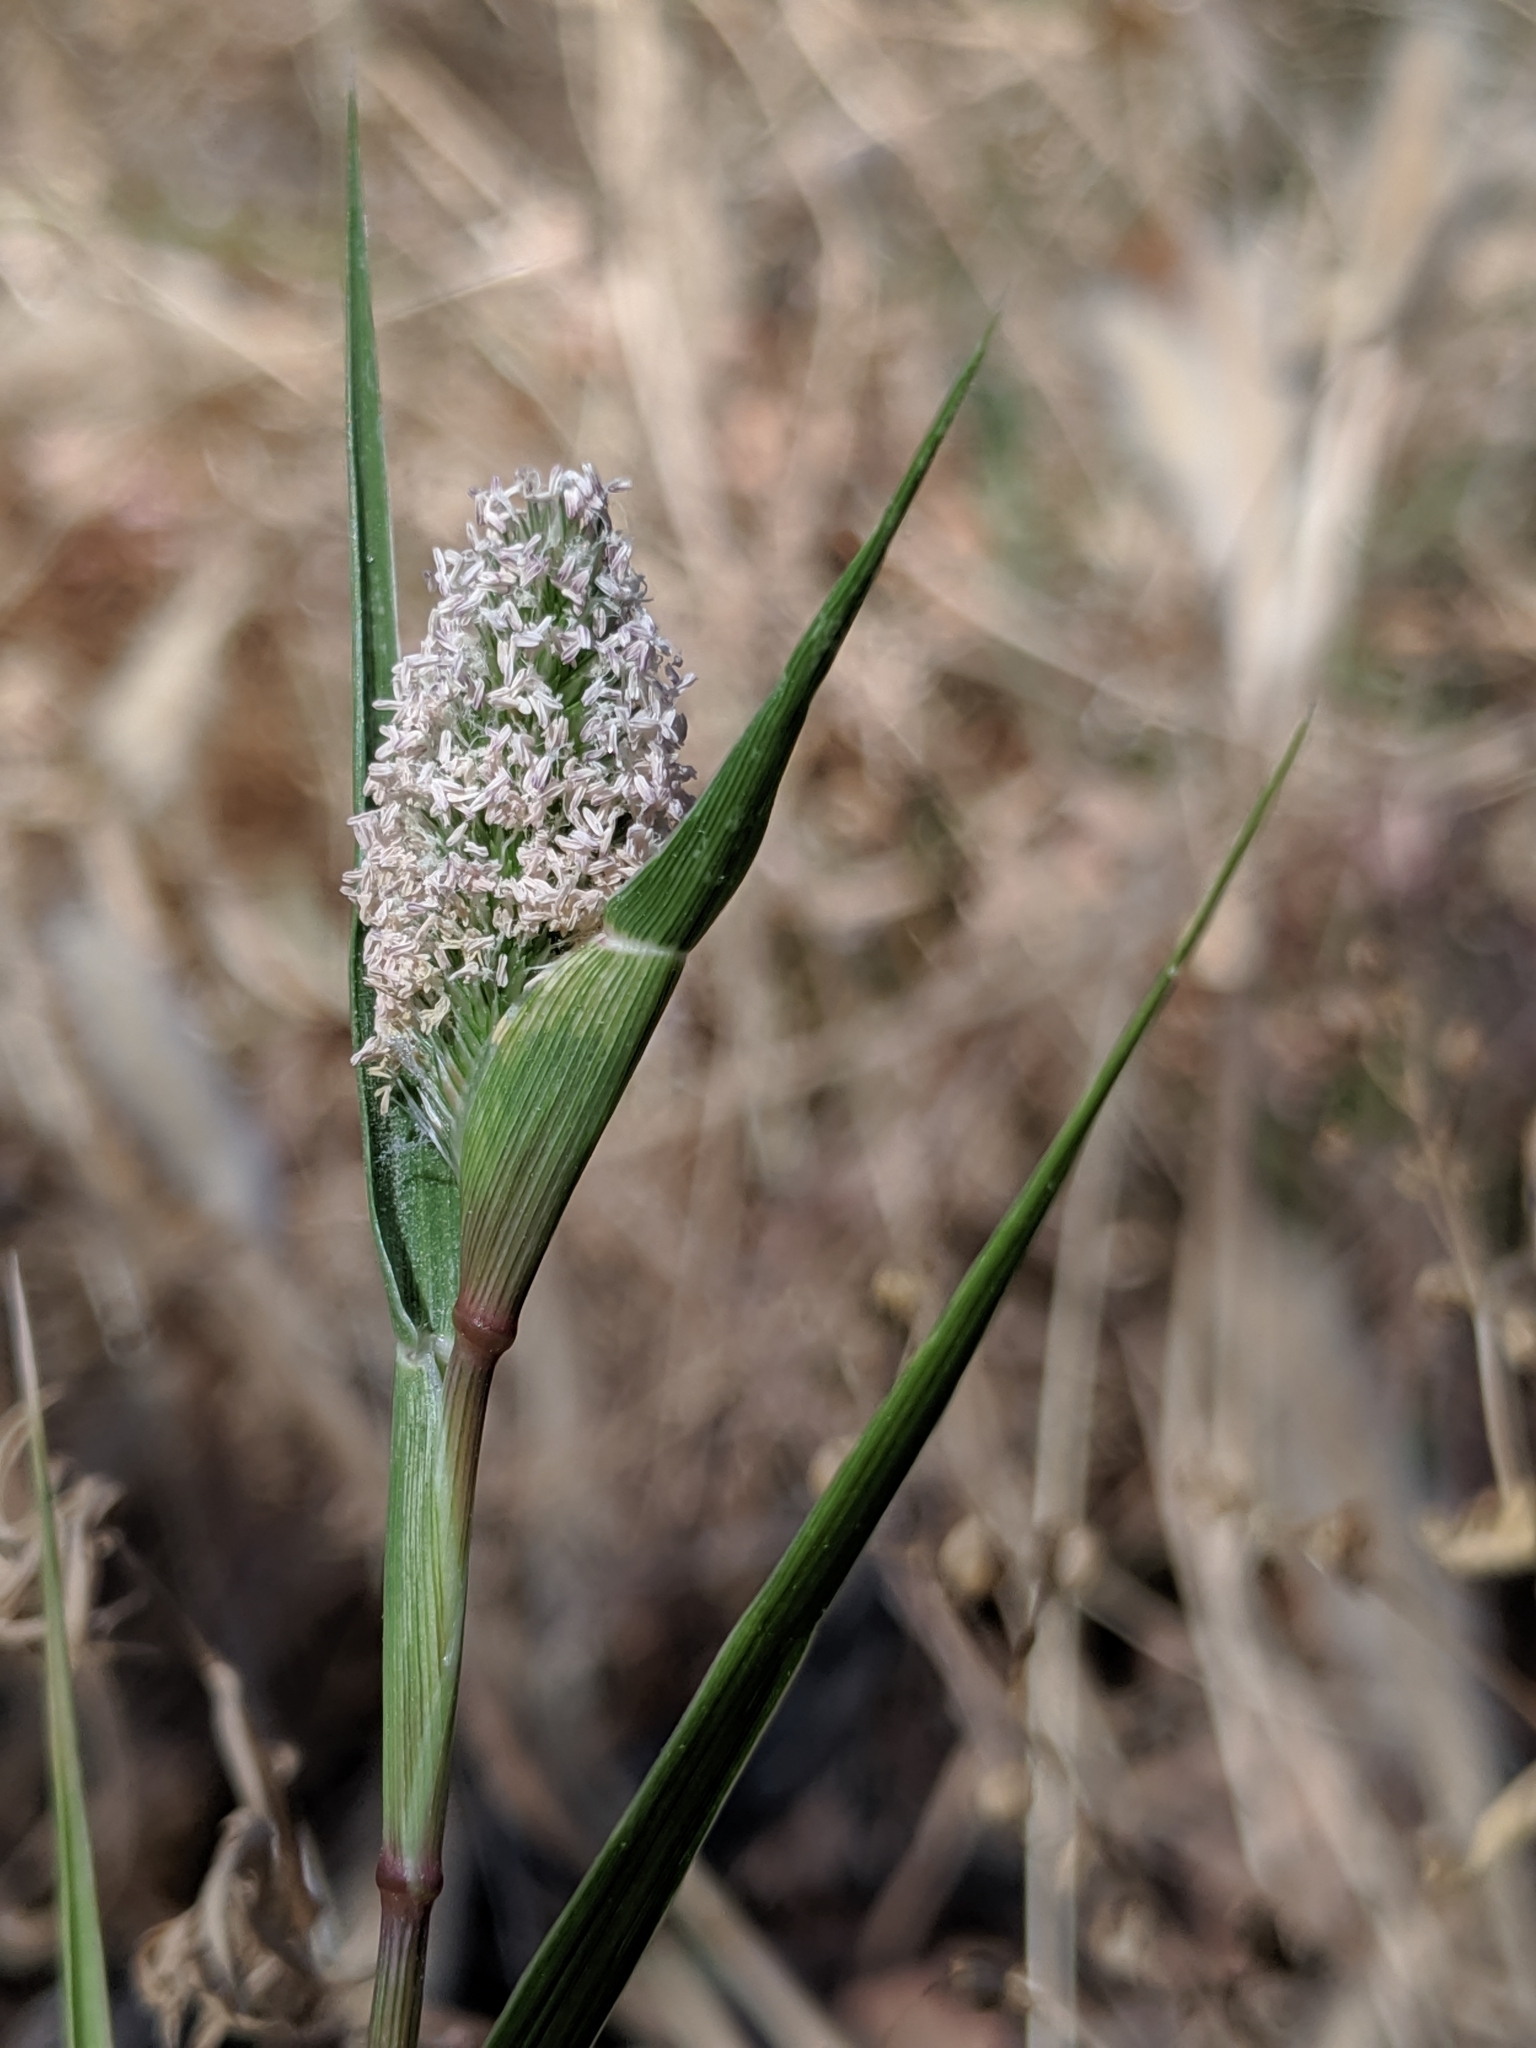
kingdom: Plantae
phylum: Tracheophyta
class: Liliopsida
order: Poales
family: Poaceae
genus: Sporobolus
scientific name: Sporobolus schoenoides
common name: Rush-like timothy
